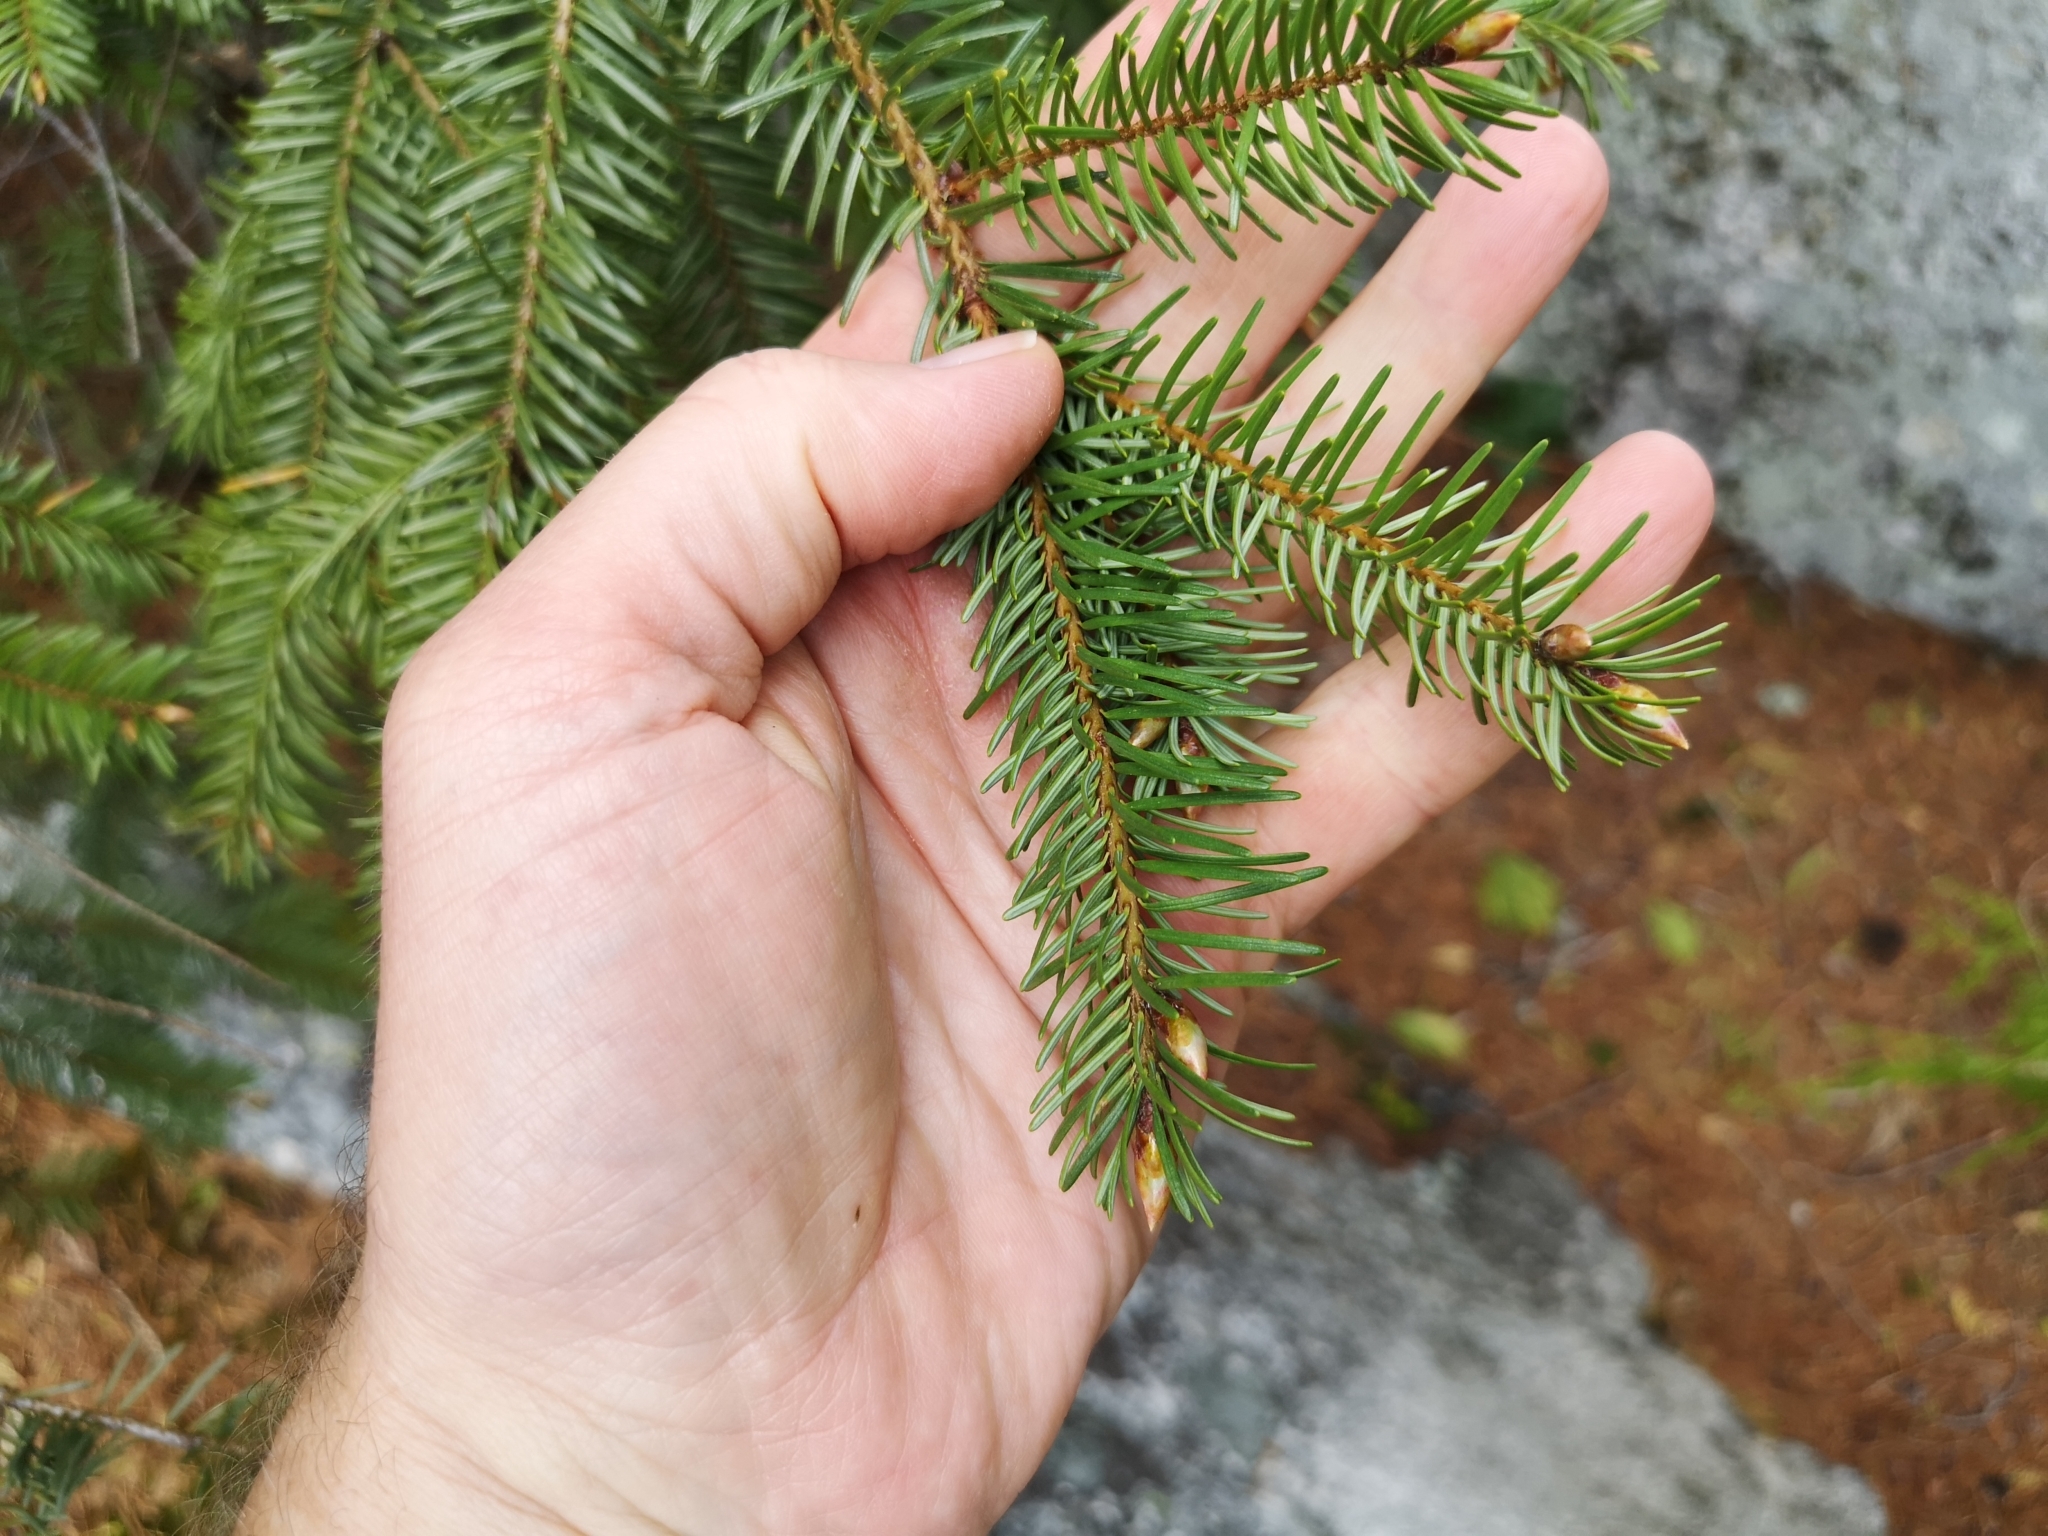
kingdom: Plantae
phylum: Tracheophyta
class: Pinopsida
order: Pinales
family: Pinaceae
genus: Pseudotsuga
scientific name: Pseudotsuga menziesii
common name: Douglas fir
